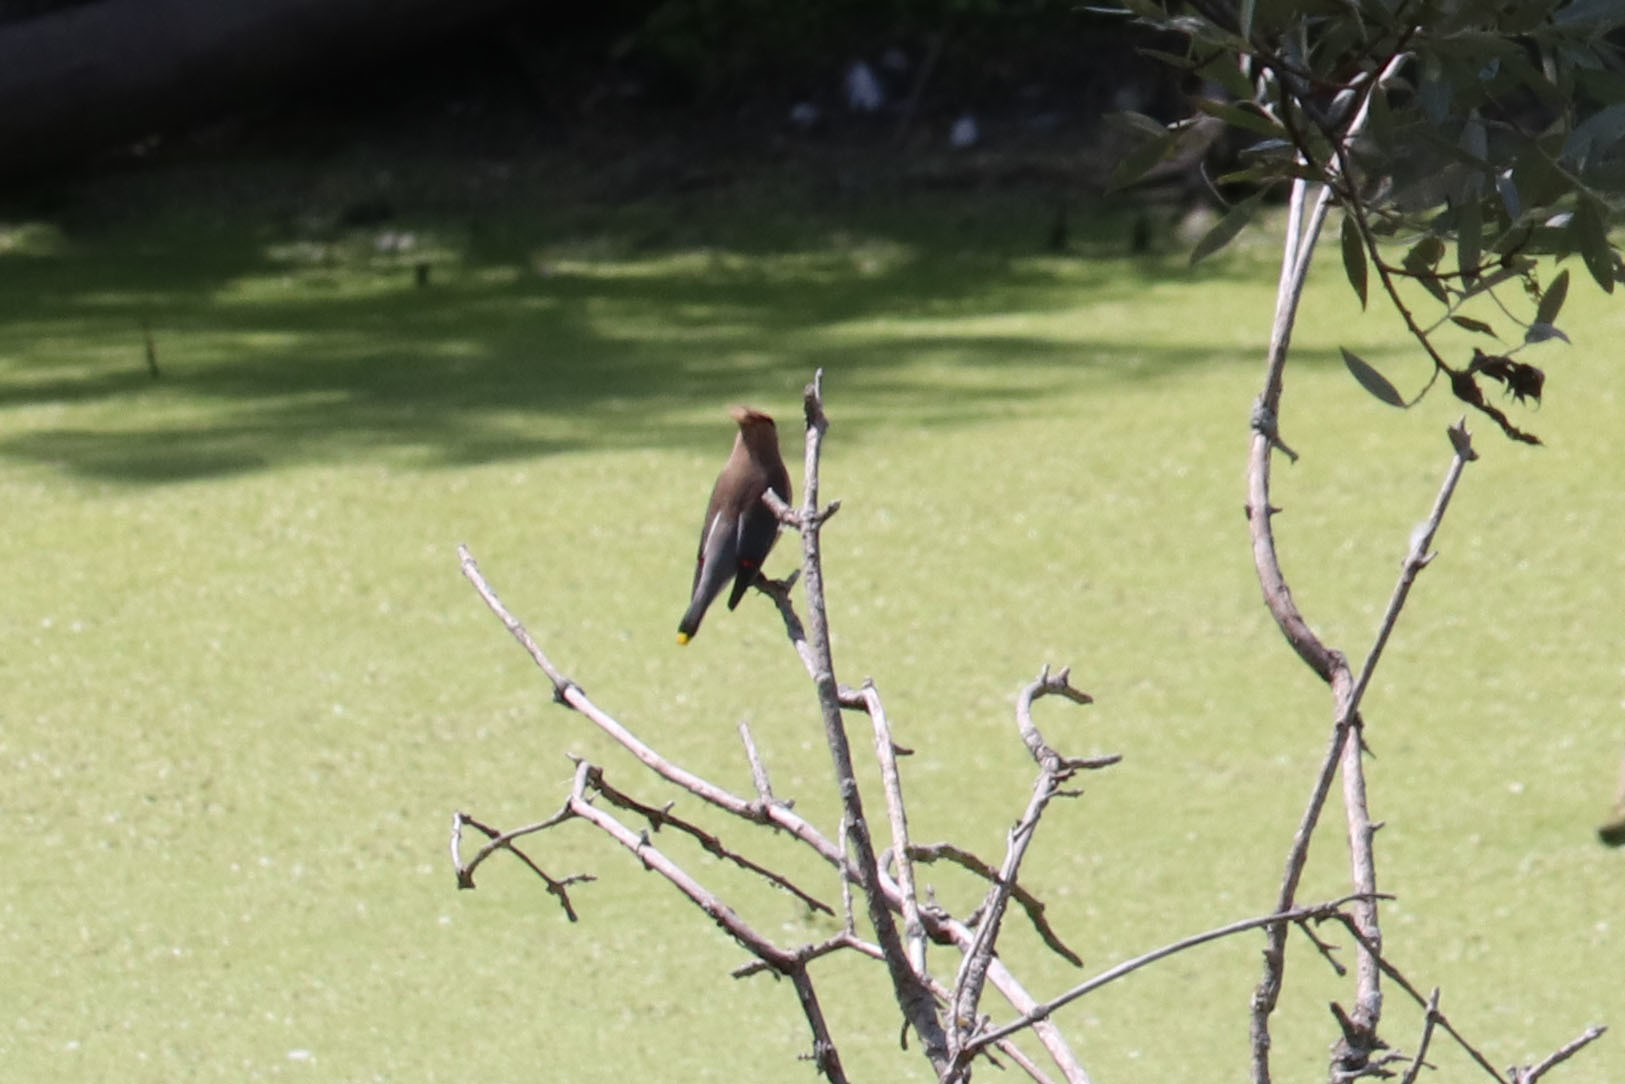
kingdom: Animalia
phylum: Chordata
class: Aves
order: Passeriformes
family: Bombycillidae
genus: Bombycilla
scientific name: Bombycilla cedrorum
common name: Cedar waxwing
